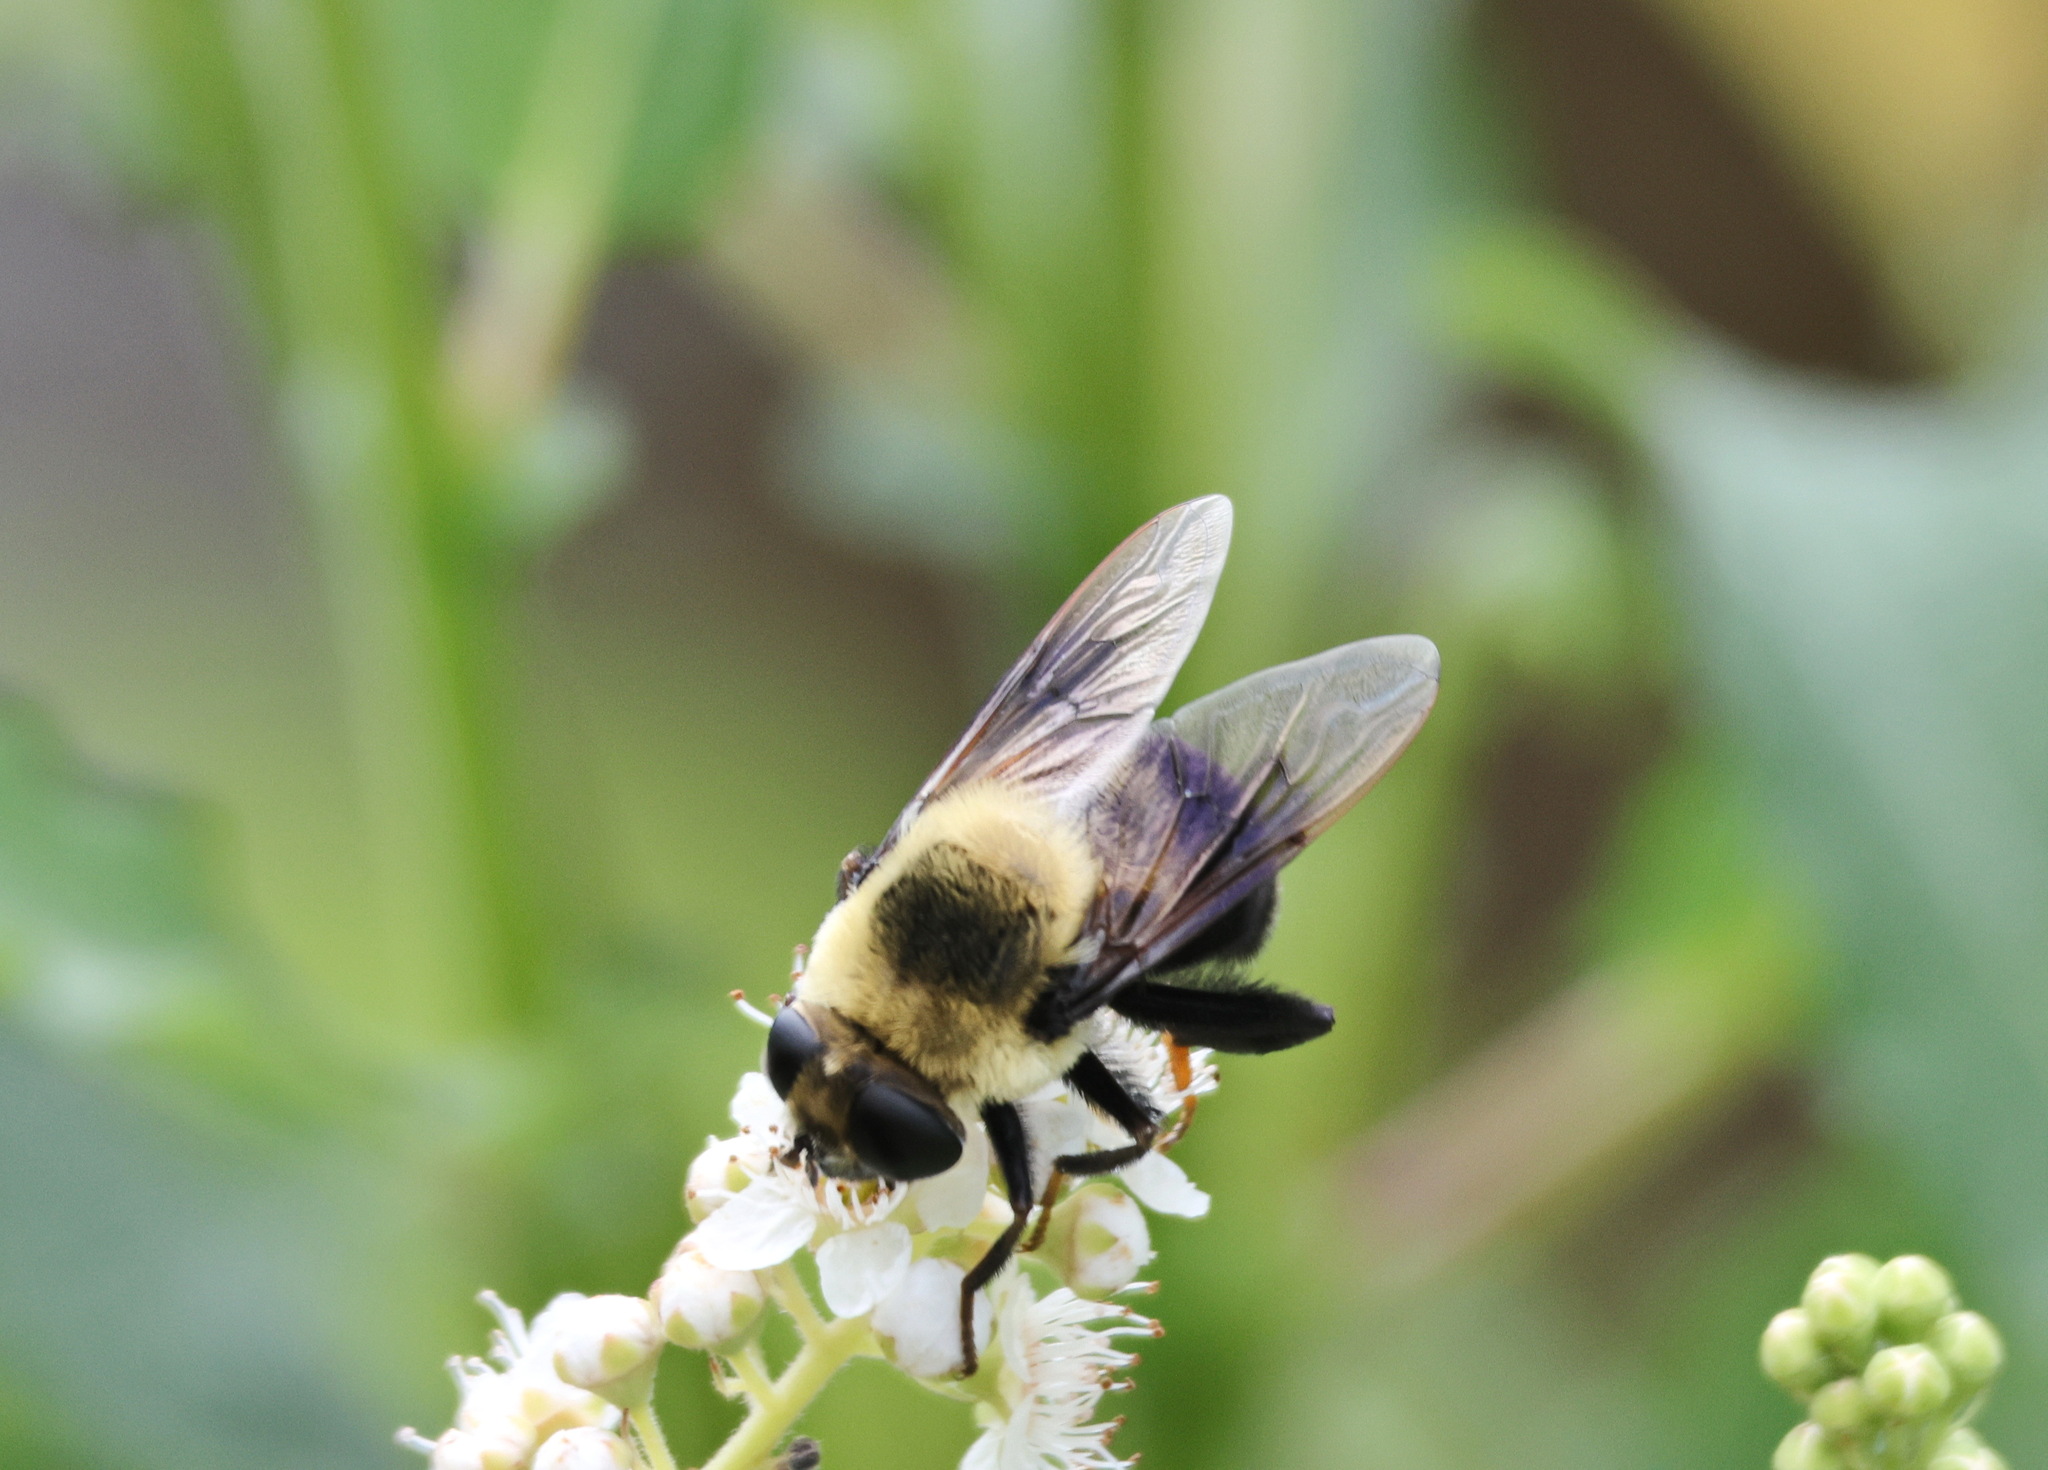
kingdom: Animalia
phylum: Arthropoda
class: Insecta
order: Diptera
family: Syrphidae
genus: Eristalis
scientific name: Eristalis flavipes
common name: Orange-legged drone fly
